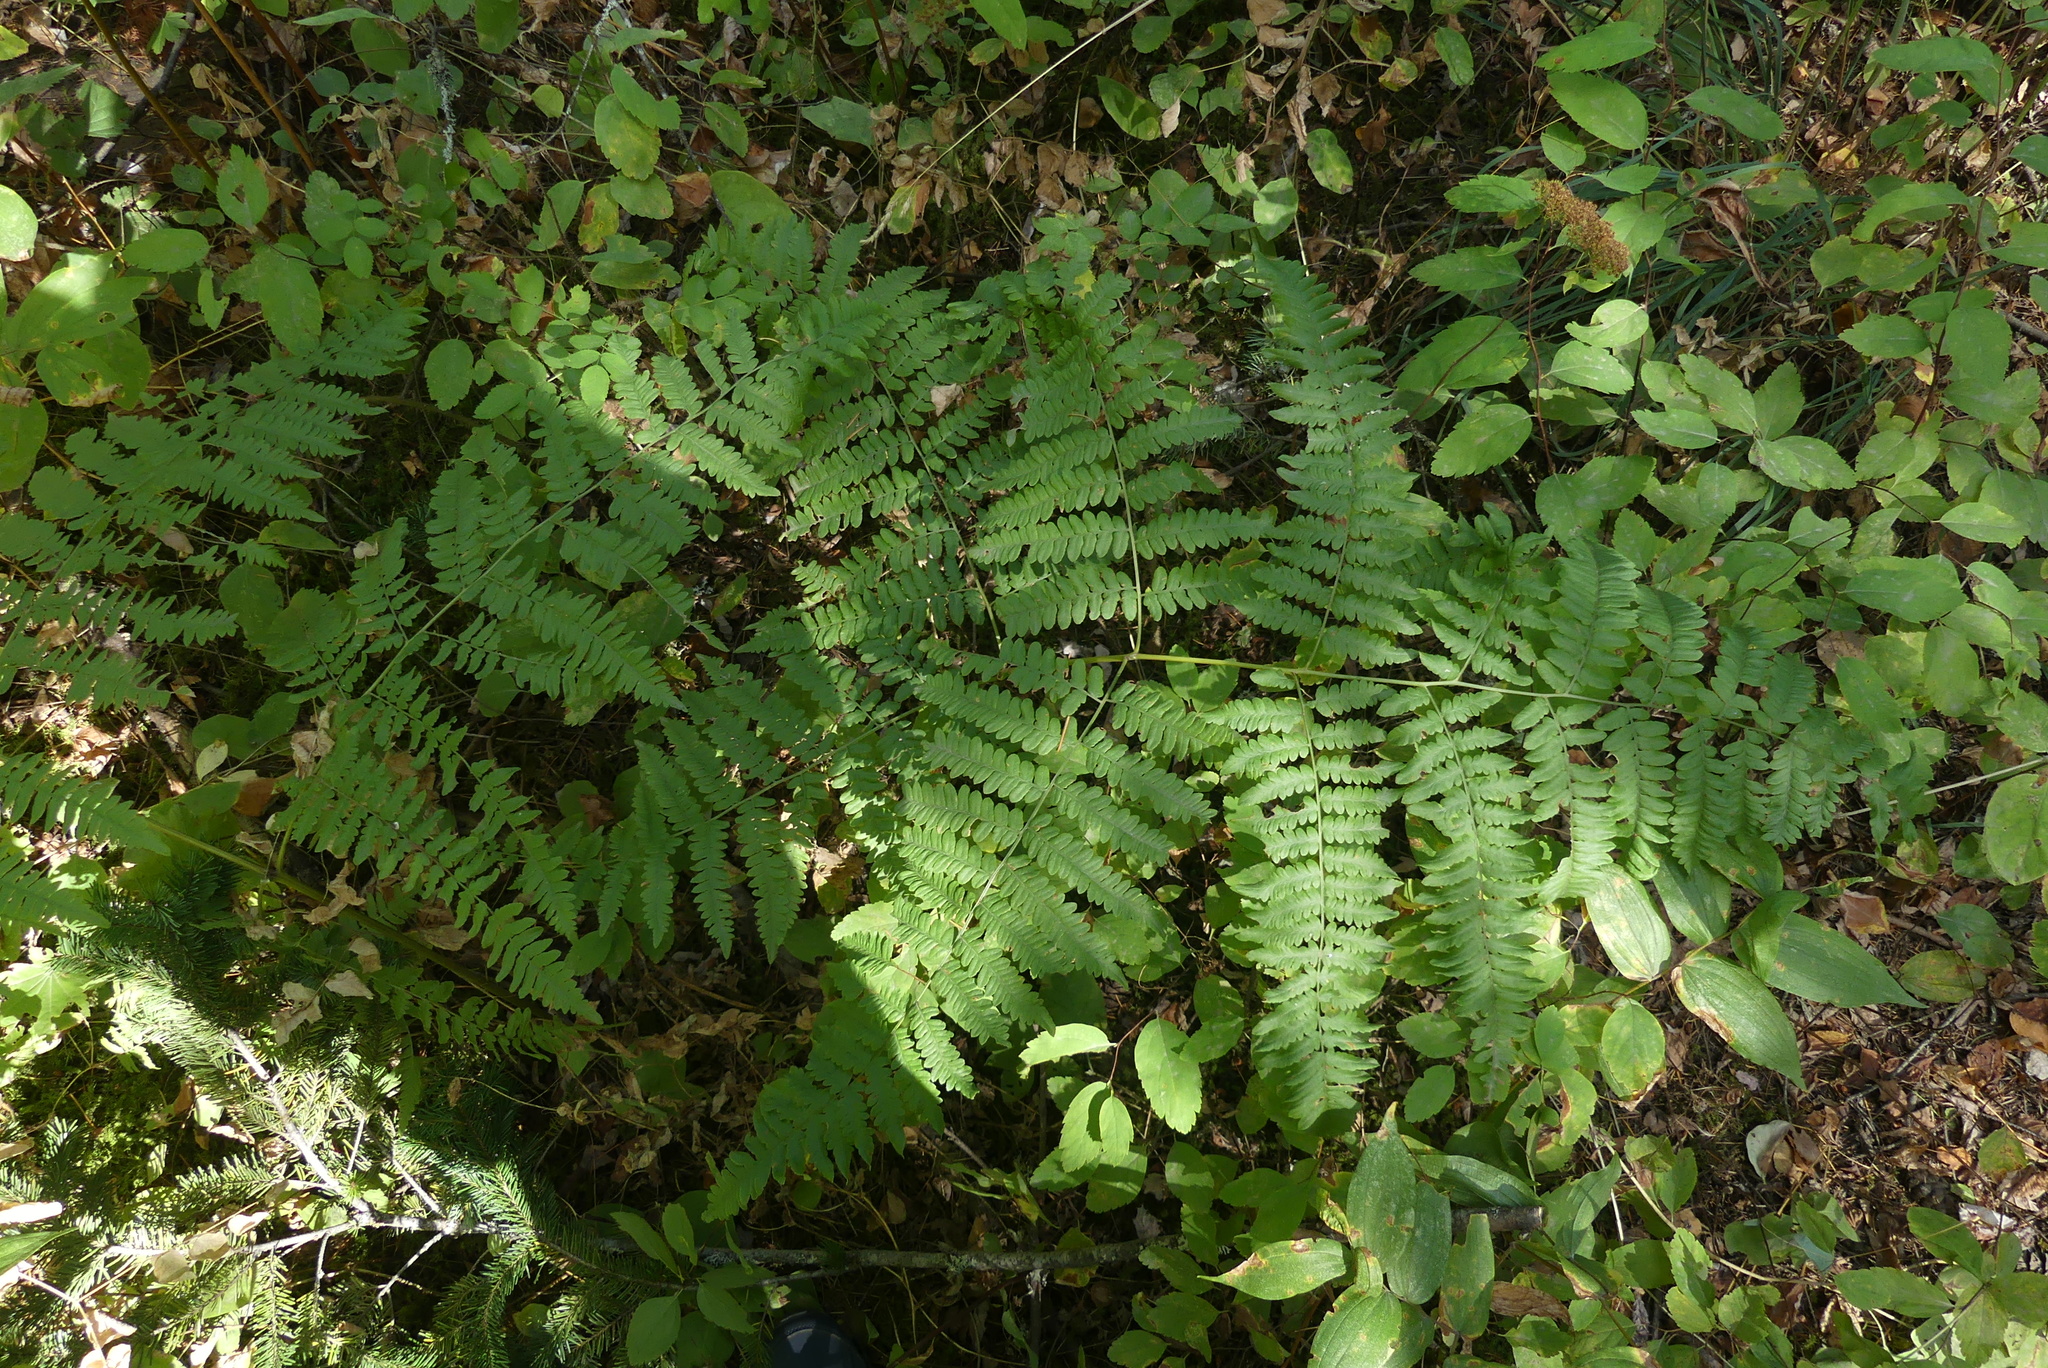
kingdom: Plantae
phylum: Tracheophyta
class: Polypodiopsida
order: Polypodiales
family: Dennstaedtiaceae
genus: Pteridium
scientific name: Pteridium aquilinum
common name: Bracken
